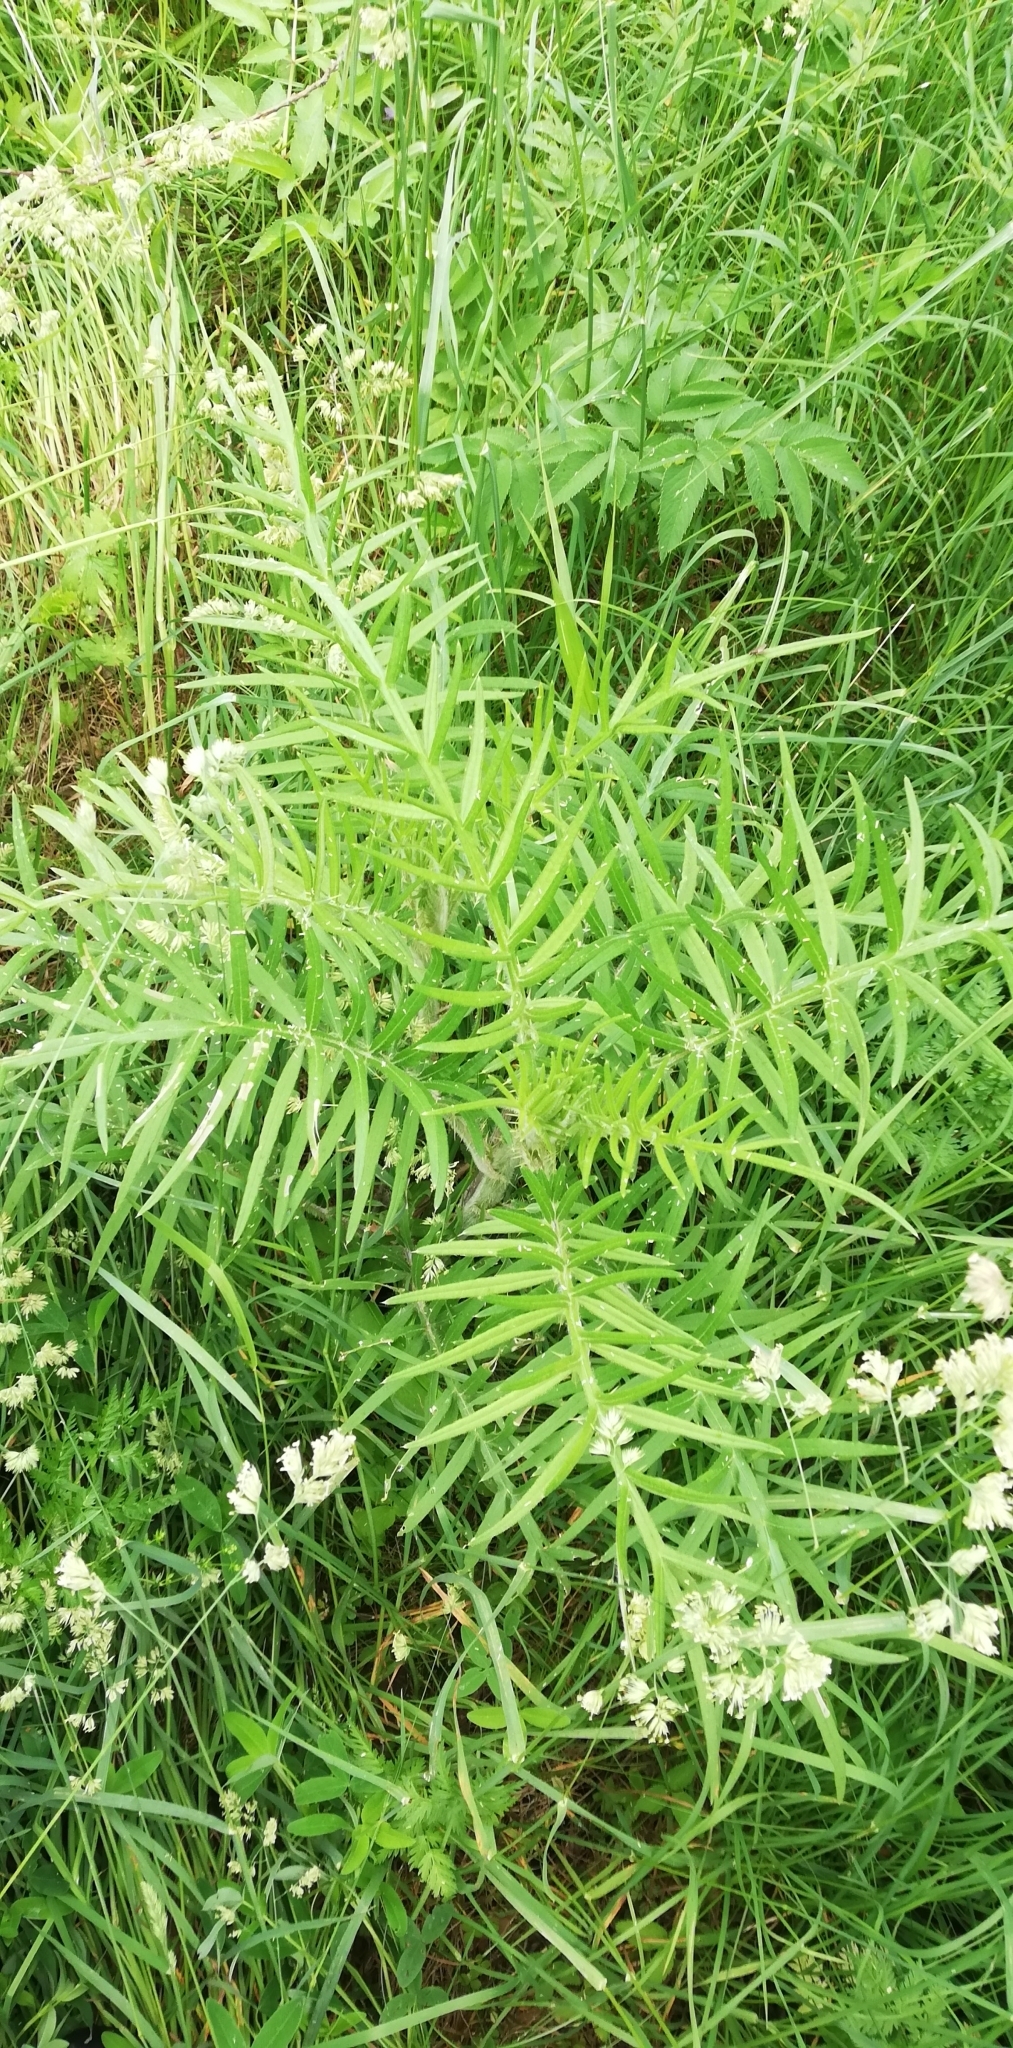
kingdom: Plantae
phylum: Tracheophyta
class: Magnoliopsida
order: Asterales
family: Asteraceae
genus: Lophiolepis
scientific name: Lophiolepis decussata
